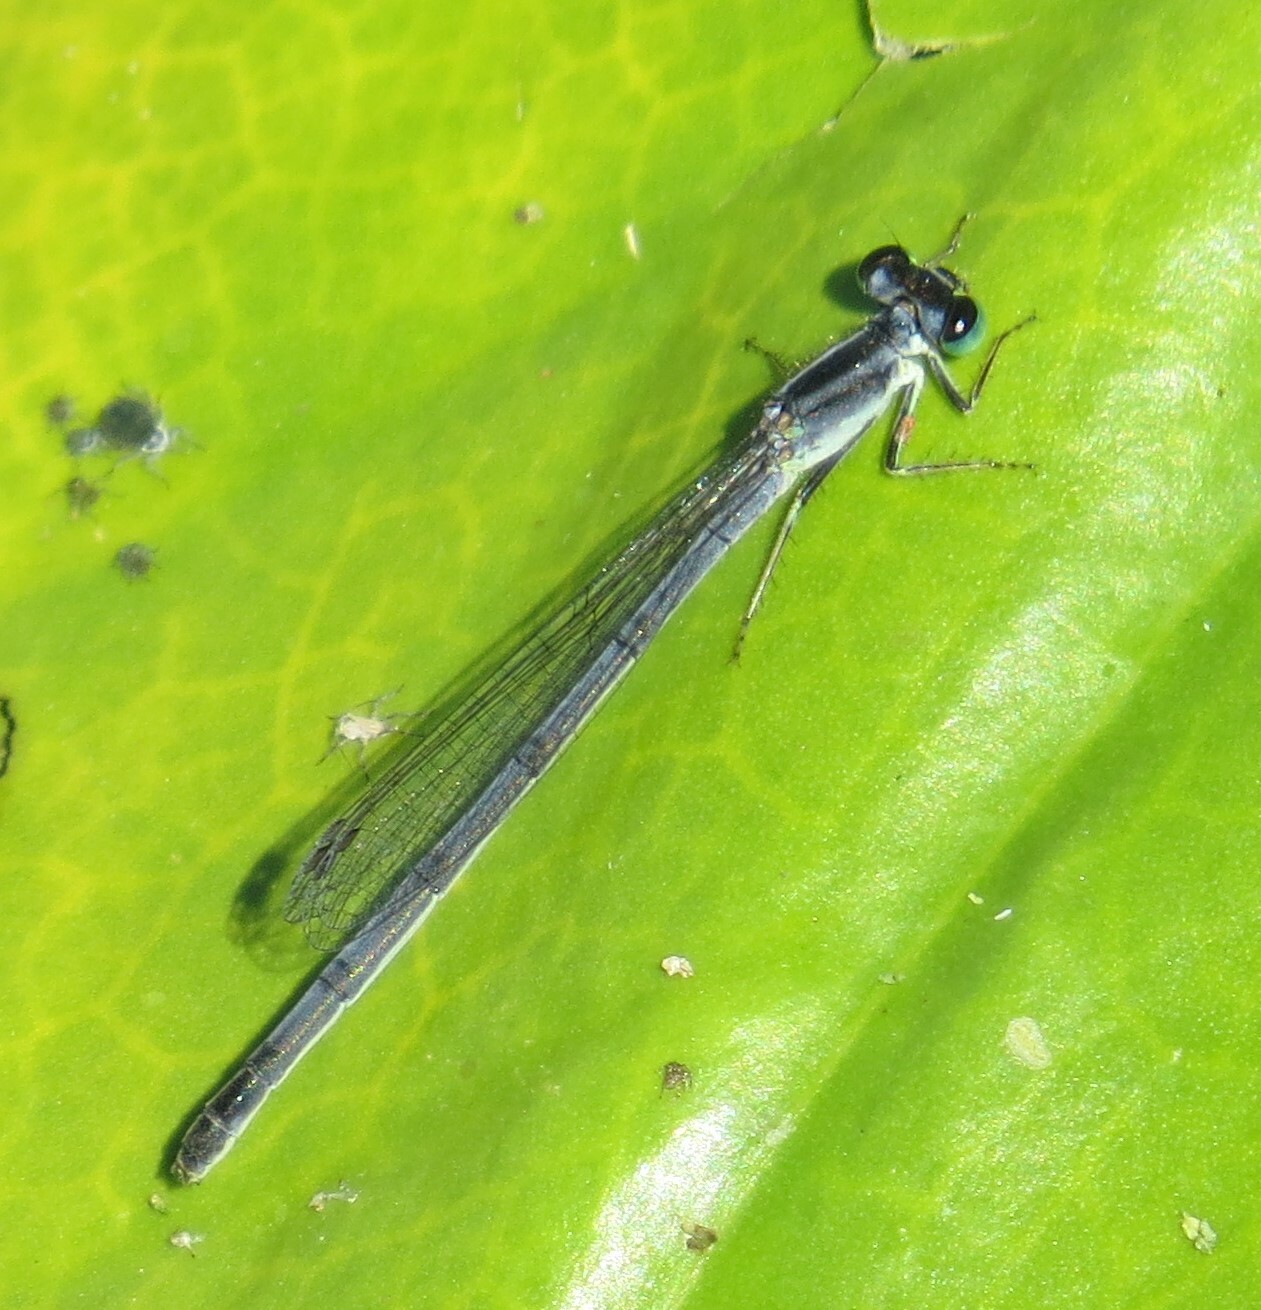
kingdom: Animalia
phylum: Arthropoda
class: Insecta
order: Odonata
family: Coenagrionidae
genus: Ischnura
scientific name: Ischnura verticalis
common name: Eastern forktail
